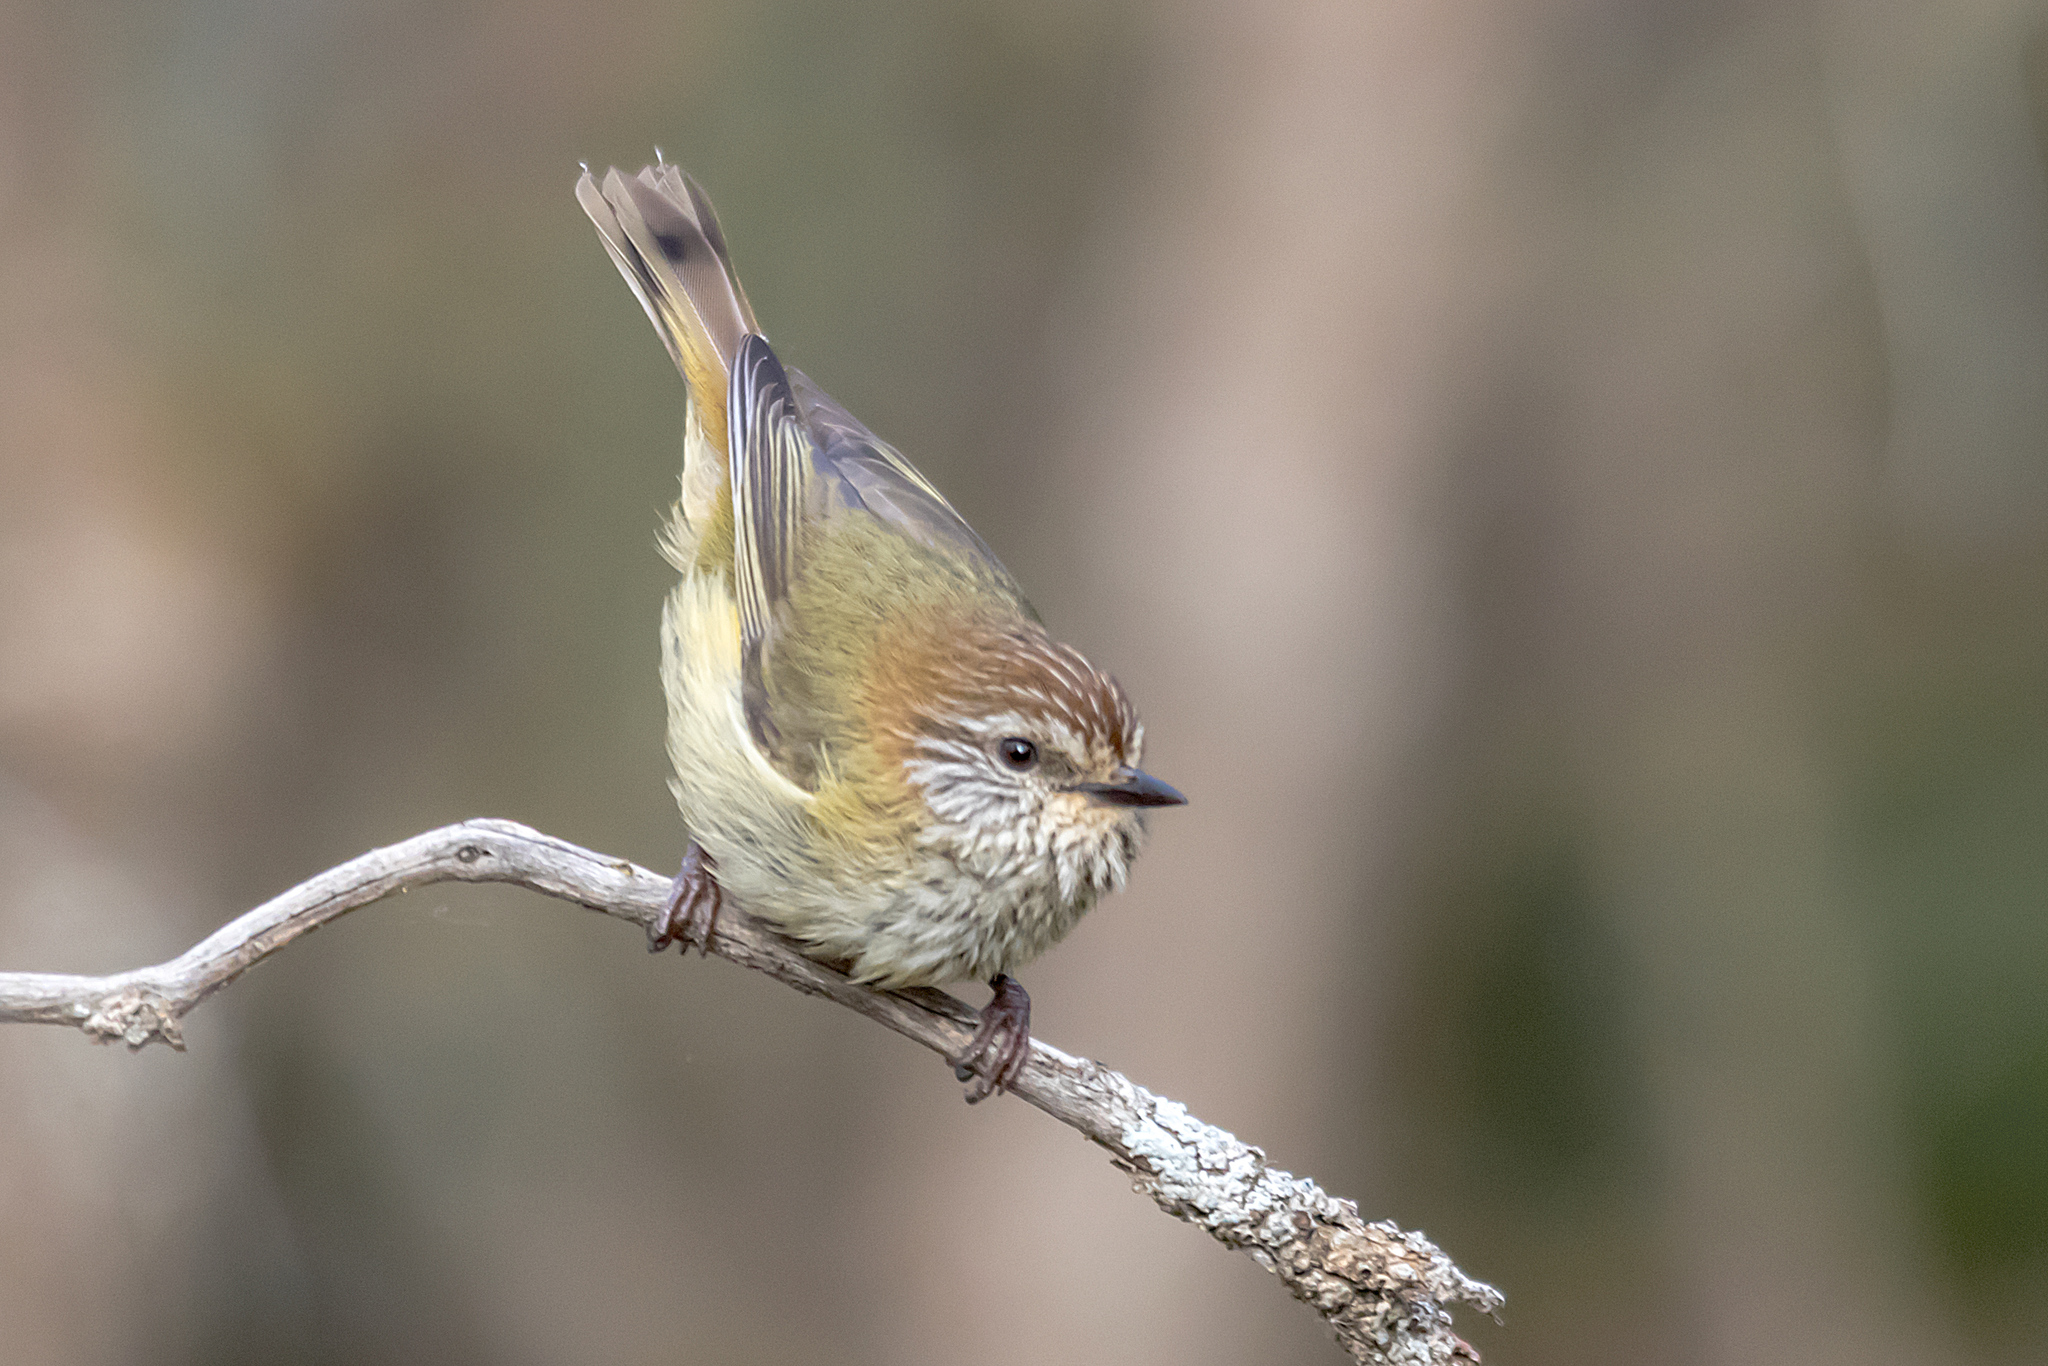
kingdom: Animalia
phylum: Chordata
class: Aves
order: Passeriformes
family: Acanthizidae
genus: Acanthiza
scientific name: Acanthiza lineata
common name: Striated thornbill
